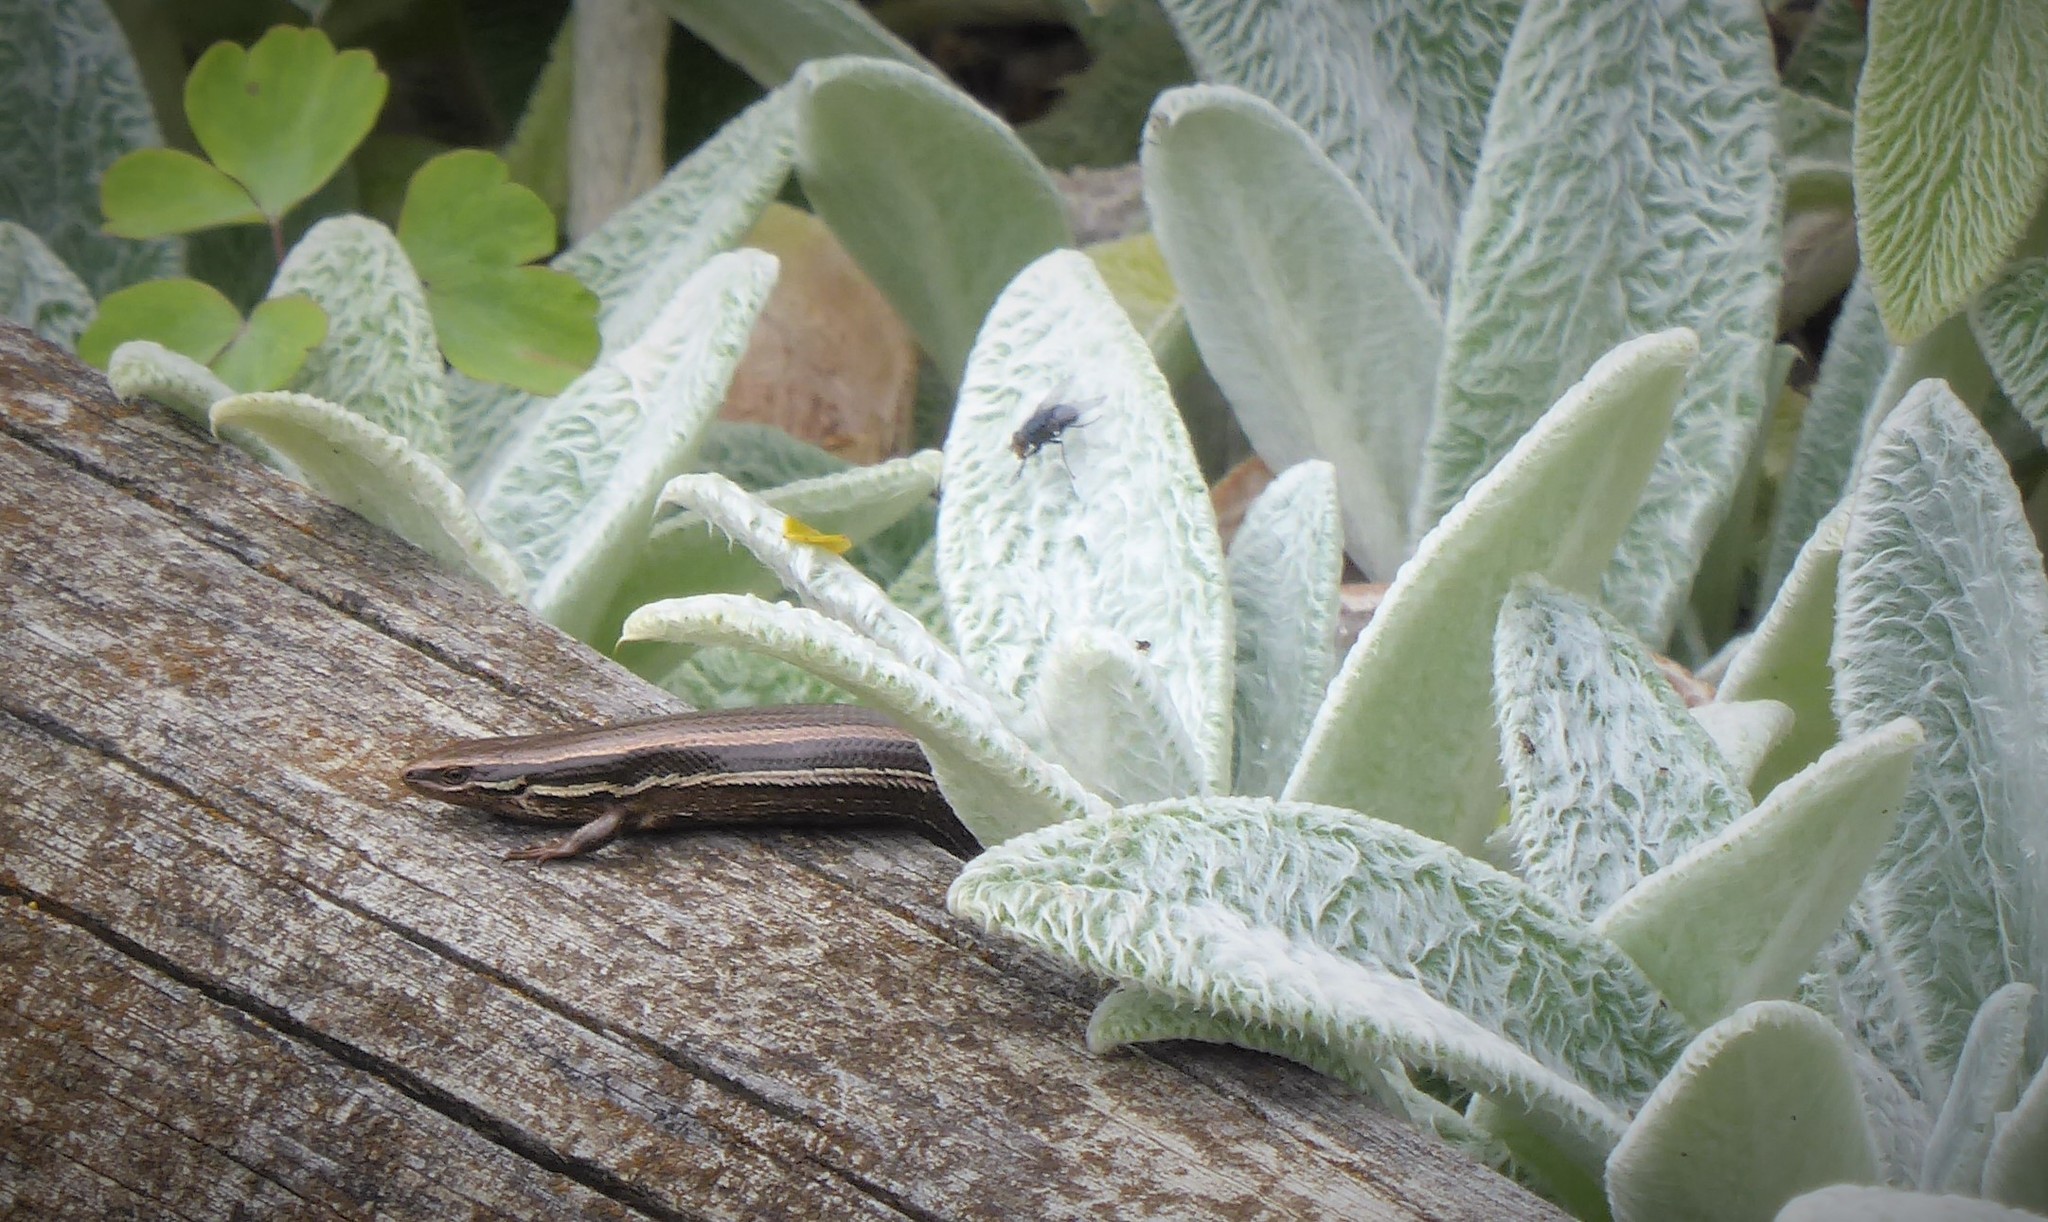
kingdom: Animalia
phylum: Chordata
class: Squamata
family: Scincidae
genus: Oligosoma
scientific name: Oligosoma polychroma
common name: Common new zealand skink
